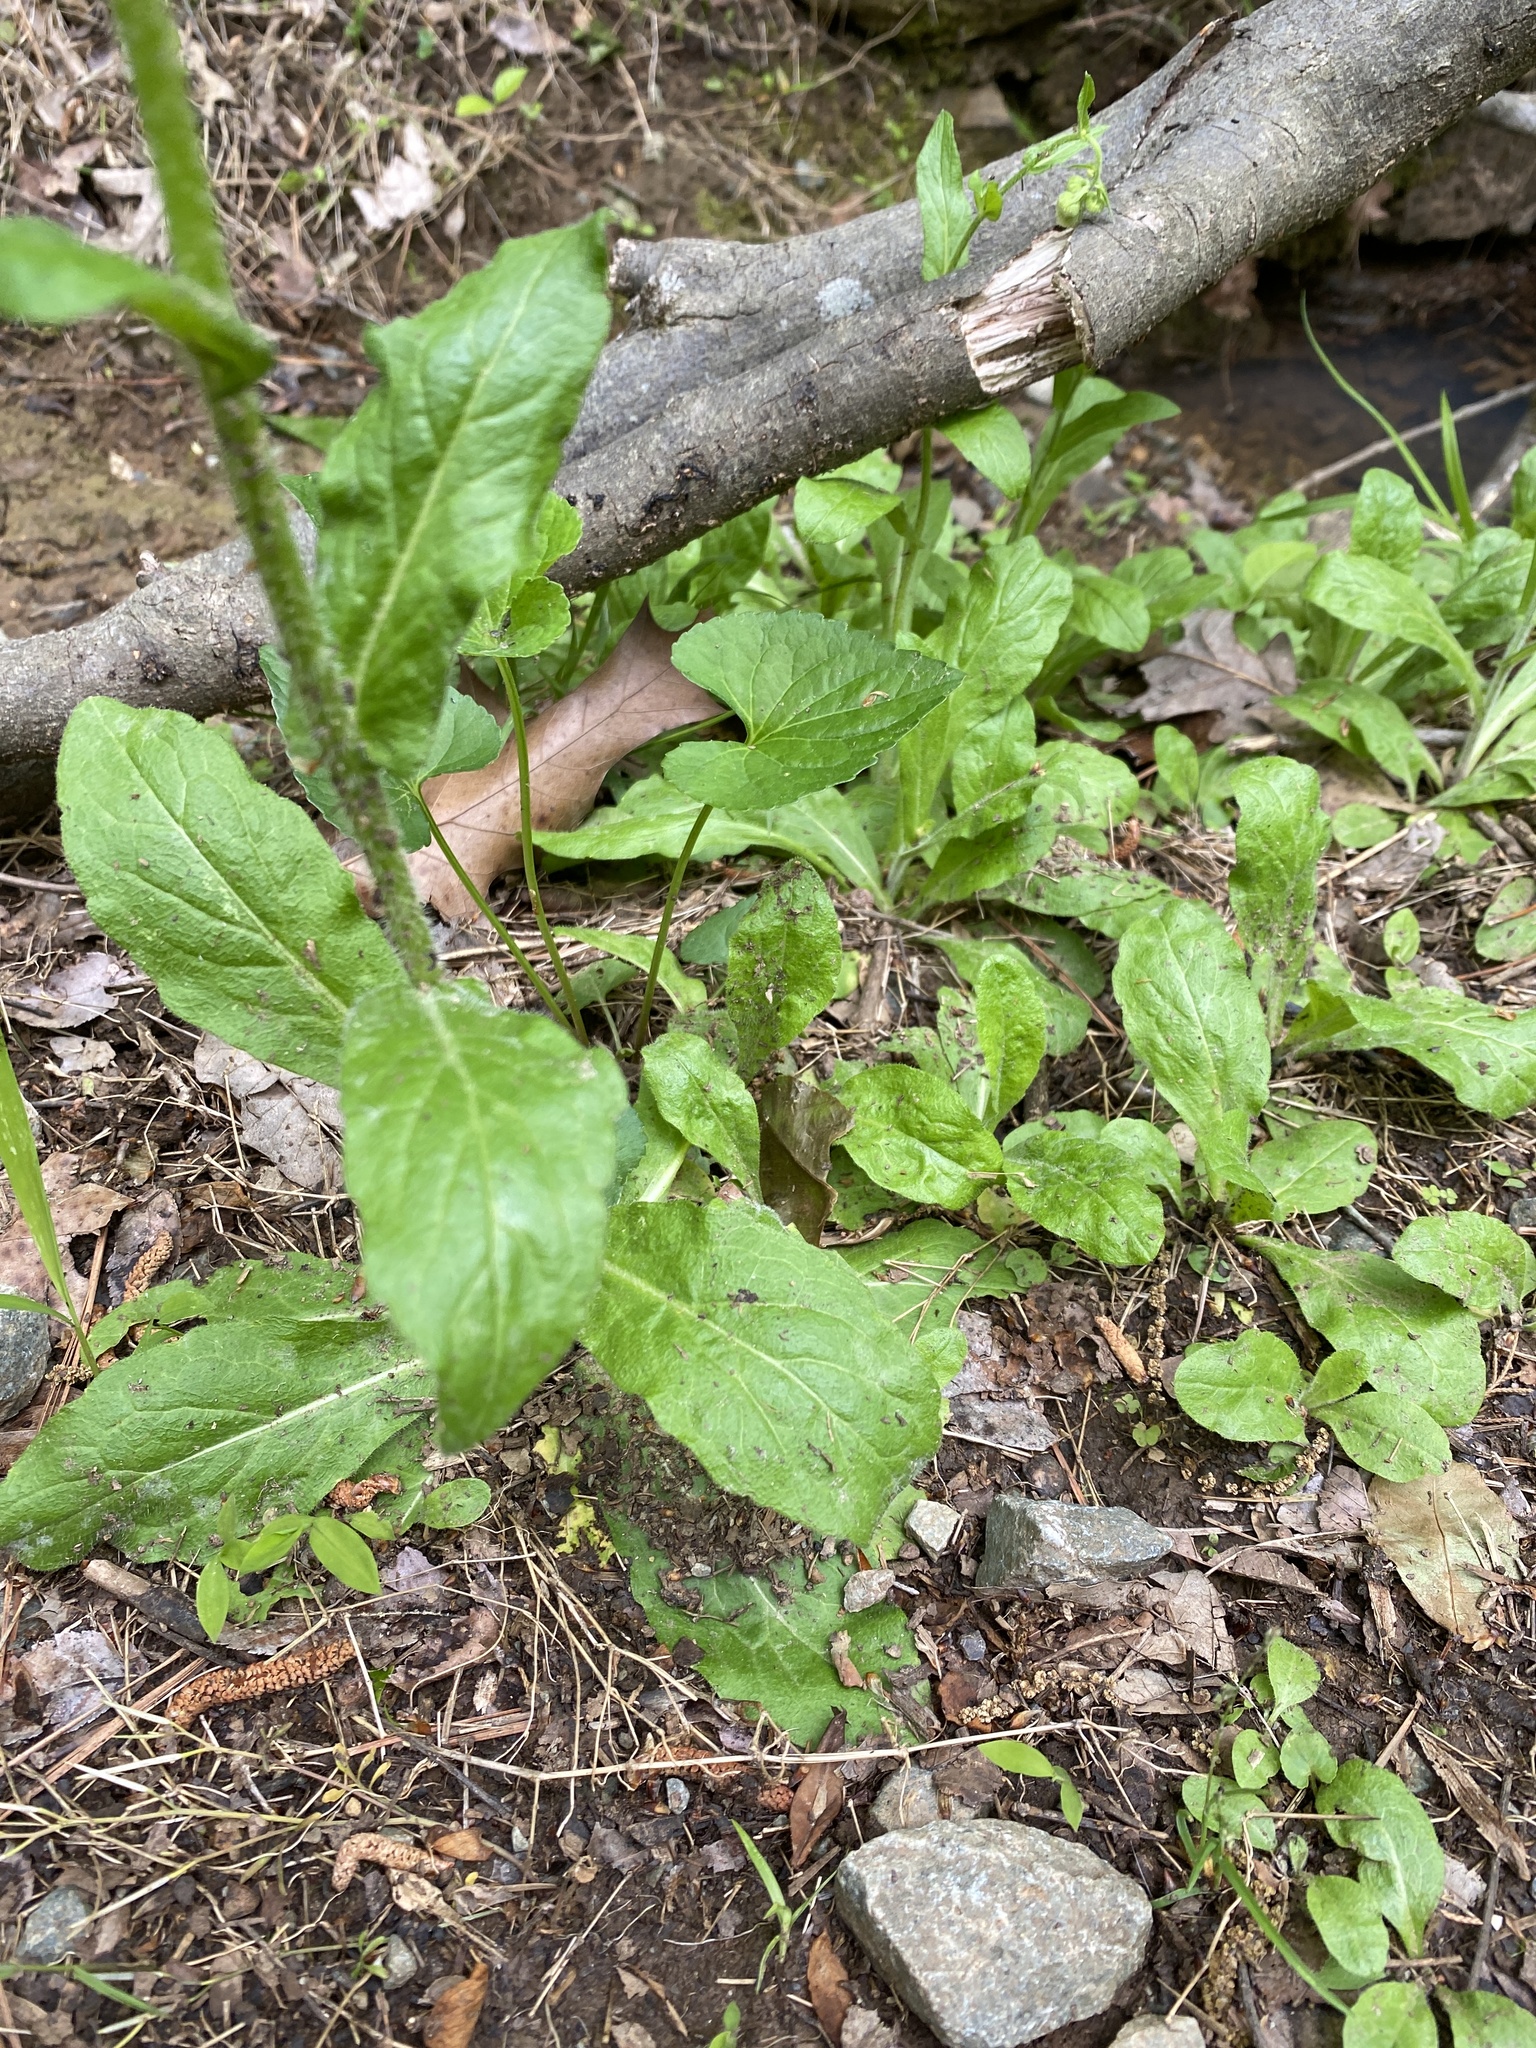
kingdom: Plantae
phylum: Tracheophyta
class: Magnoliopsida
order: Asterales
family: Asteraceae
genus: Erigeron
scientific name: Erigeron philadelphicus
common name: Robin's-plantain
